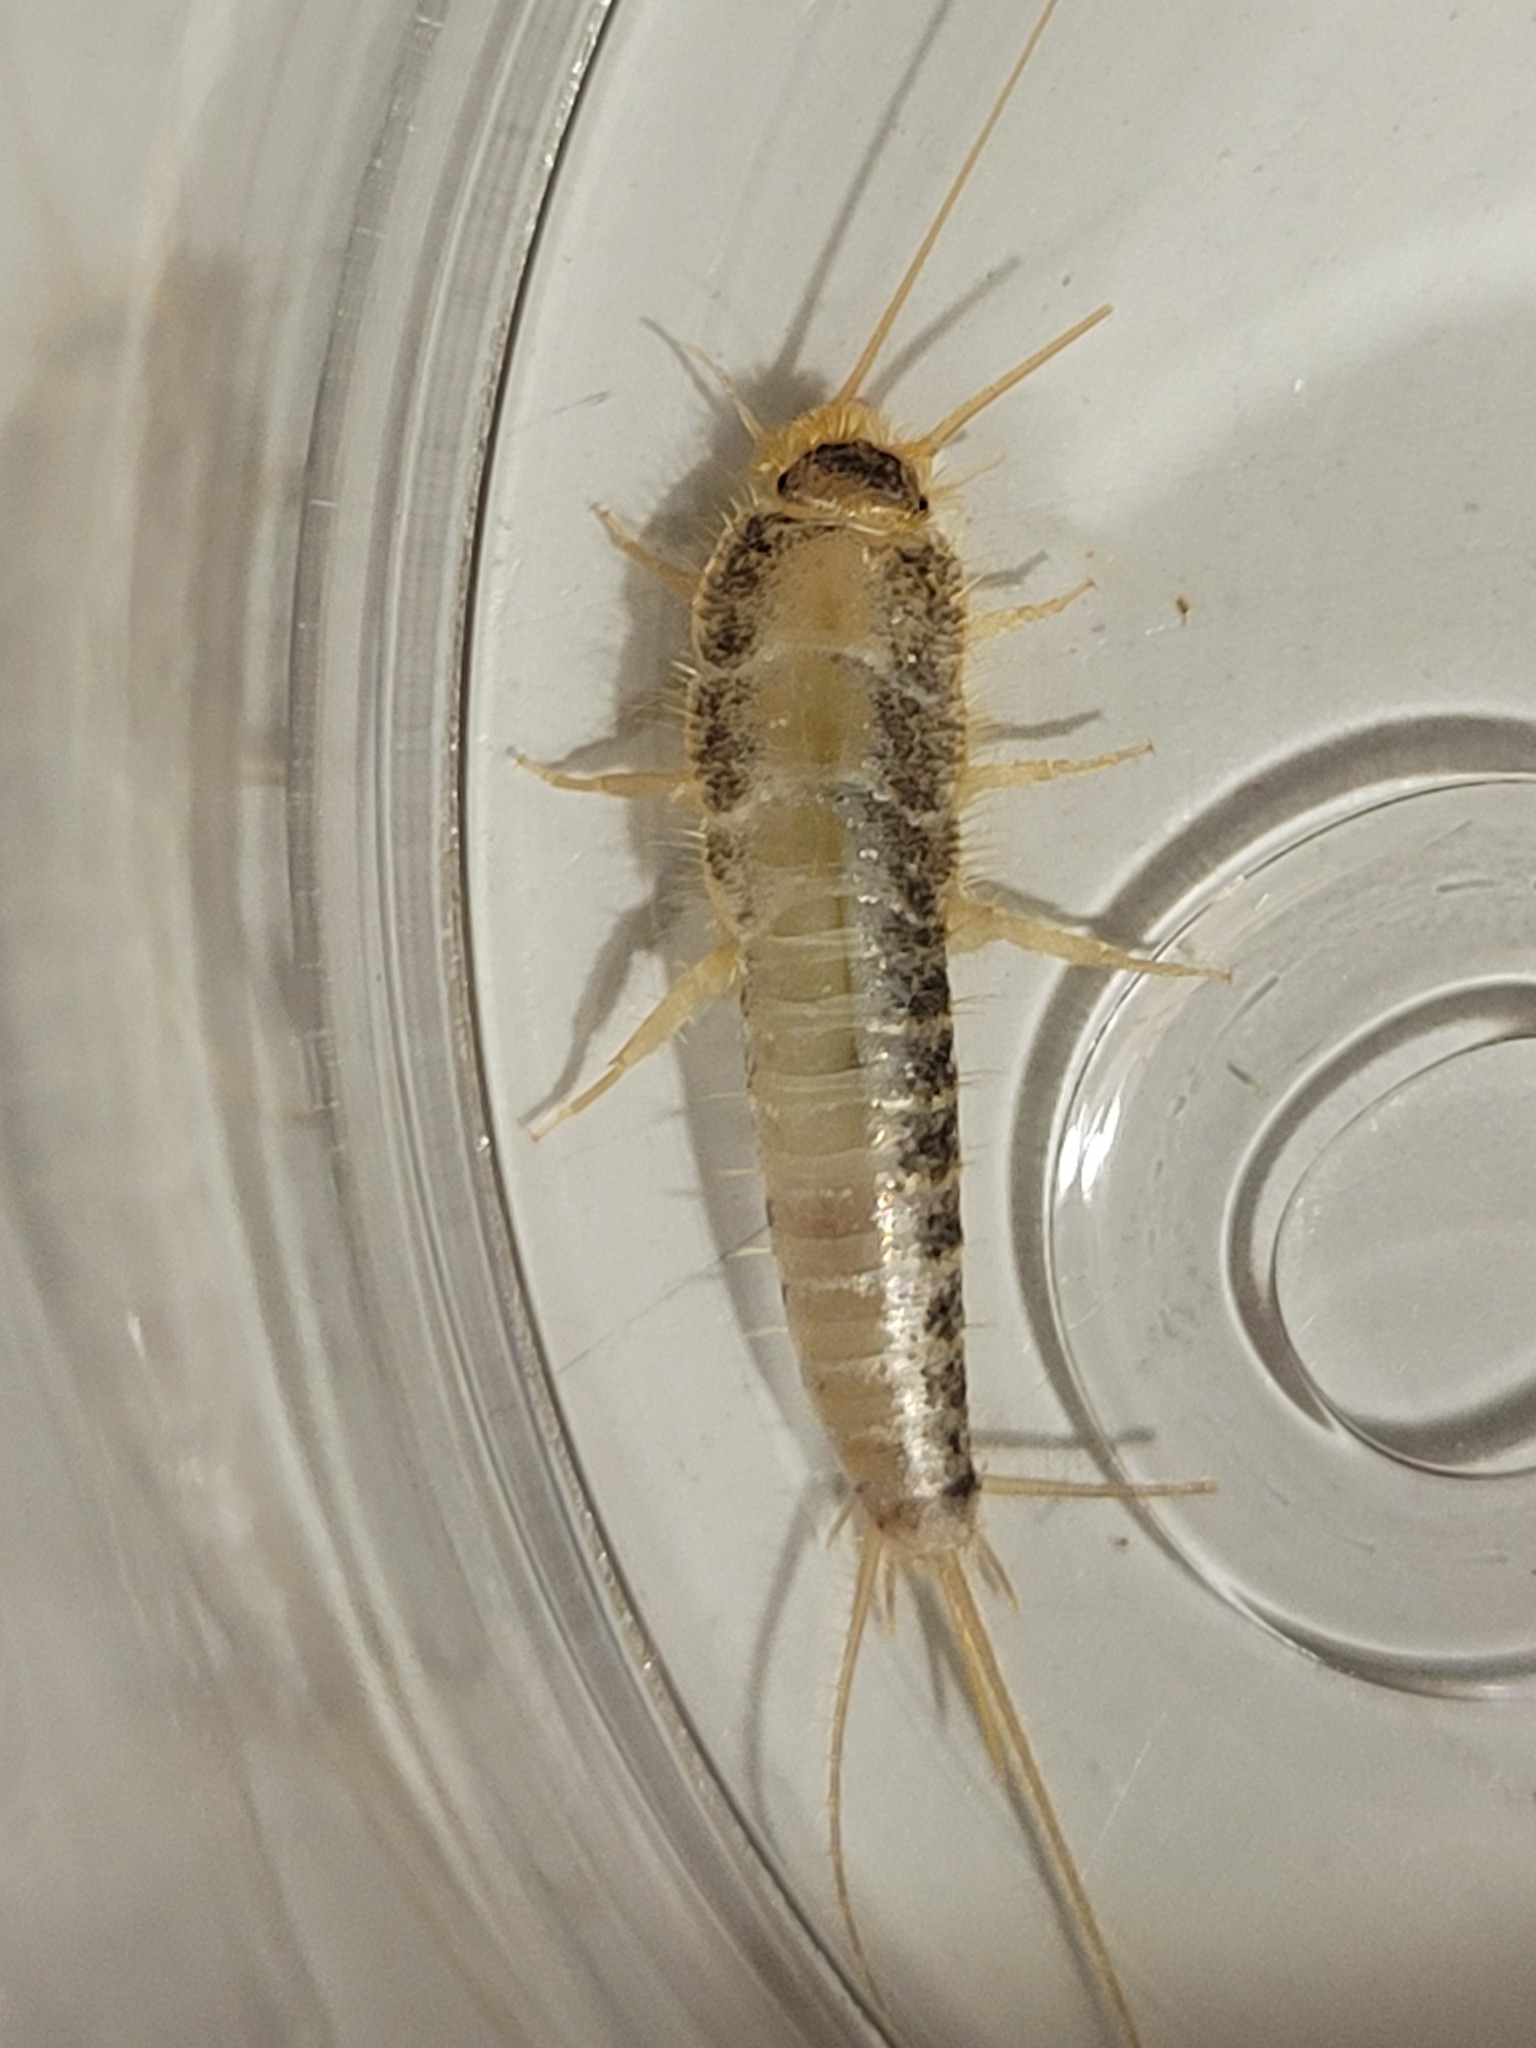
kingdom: Animalia
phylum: Arthropoda
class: Insecta
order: Zygentoma
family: Lepismatidae
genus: Ctenolepisma
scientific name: Ctenolepisma longicaudatum
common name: Silverfish
